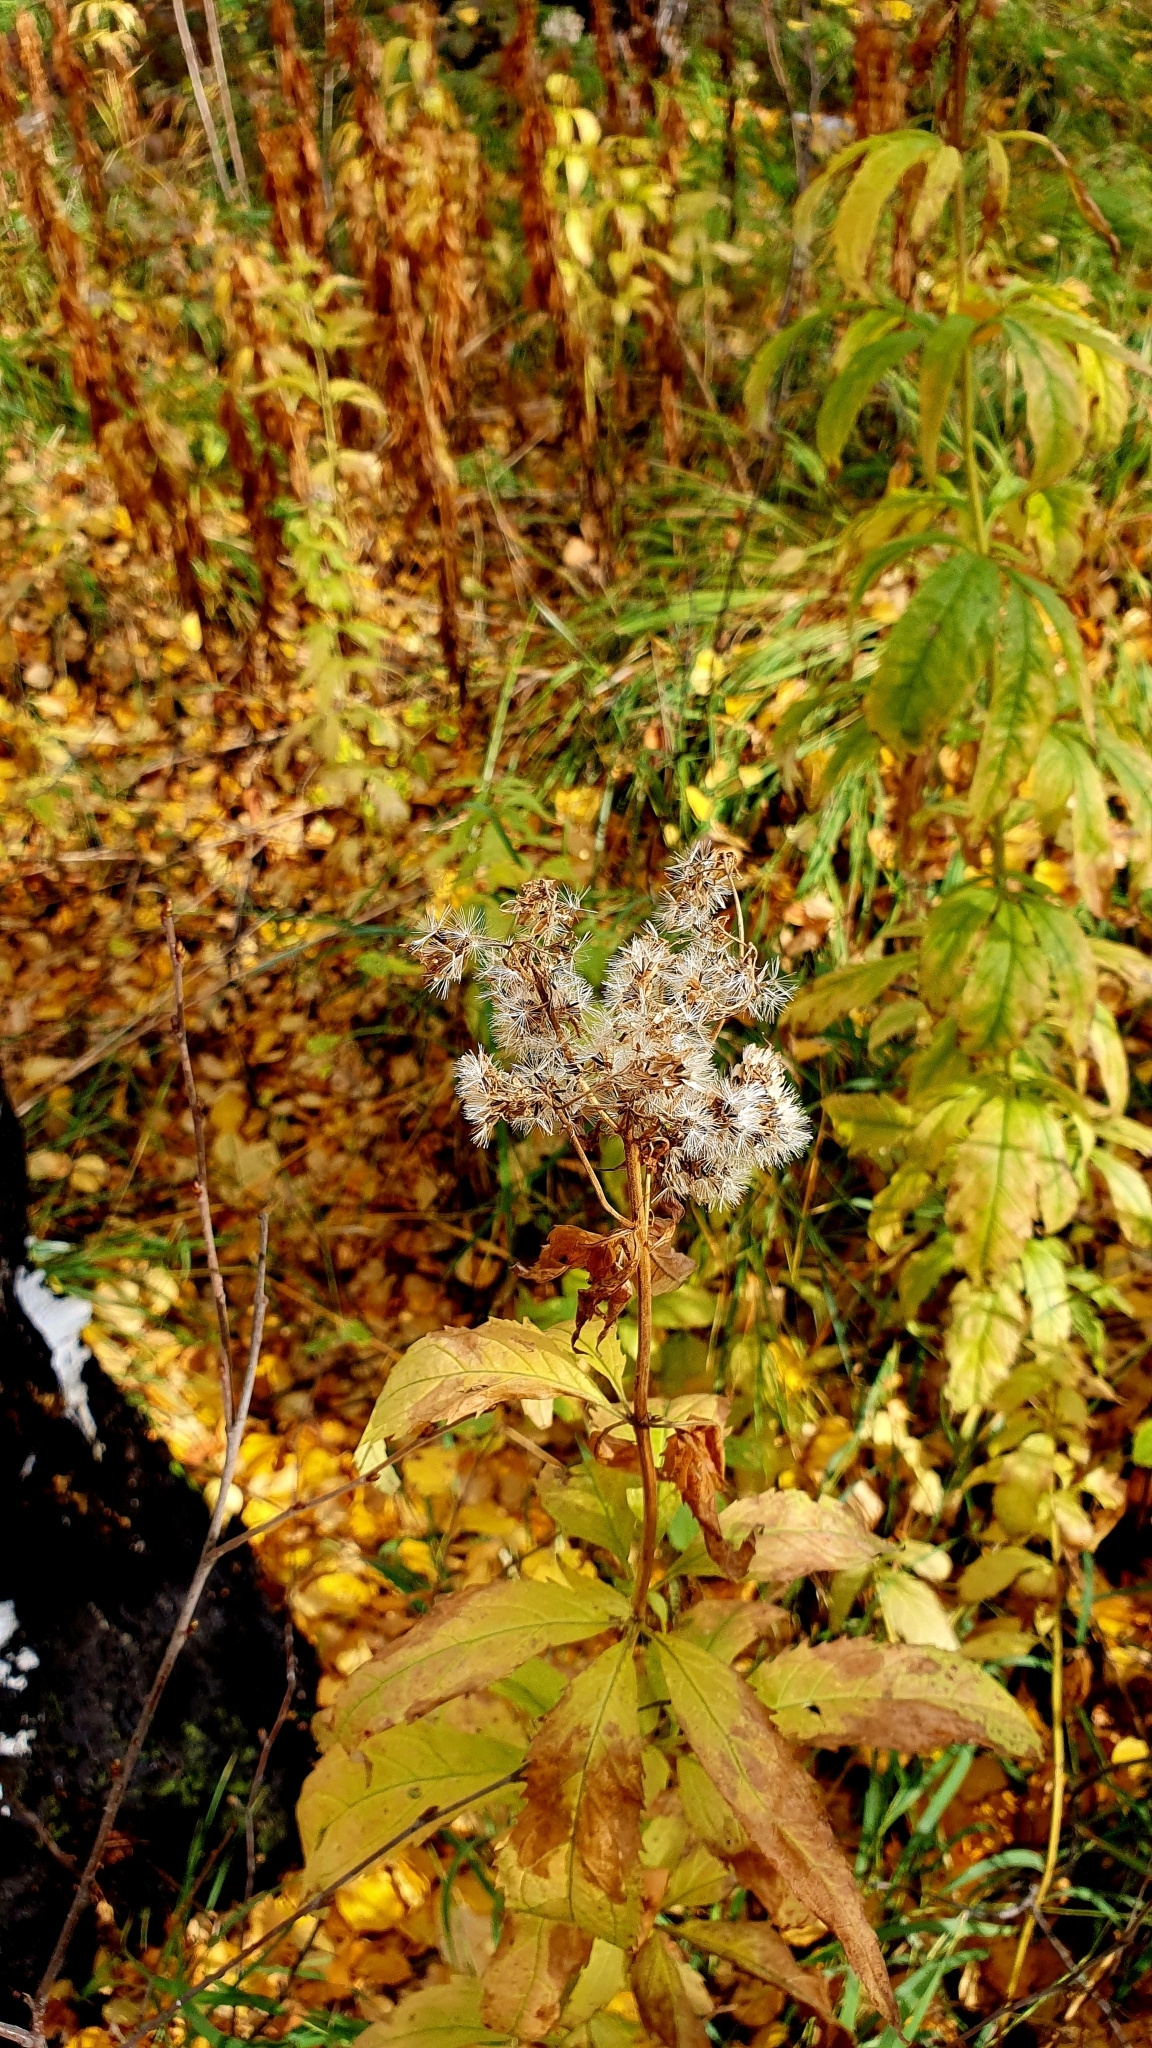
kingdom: Plantae
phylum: Tracheophyta
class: Magnoliopsida
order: Asterales
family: Asteraceae
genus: Eupatorium
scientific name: Eupatorium cannabinum
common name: Hemp-agrimony
